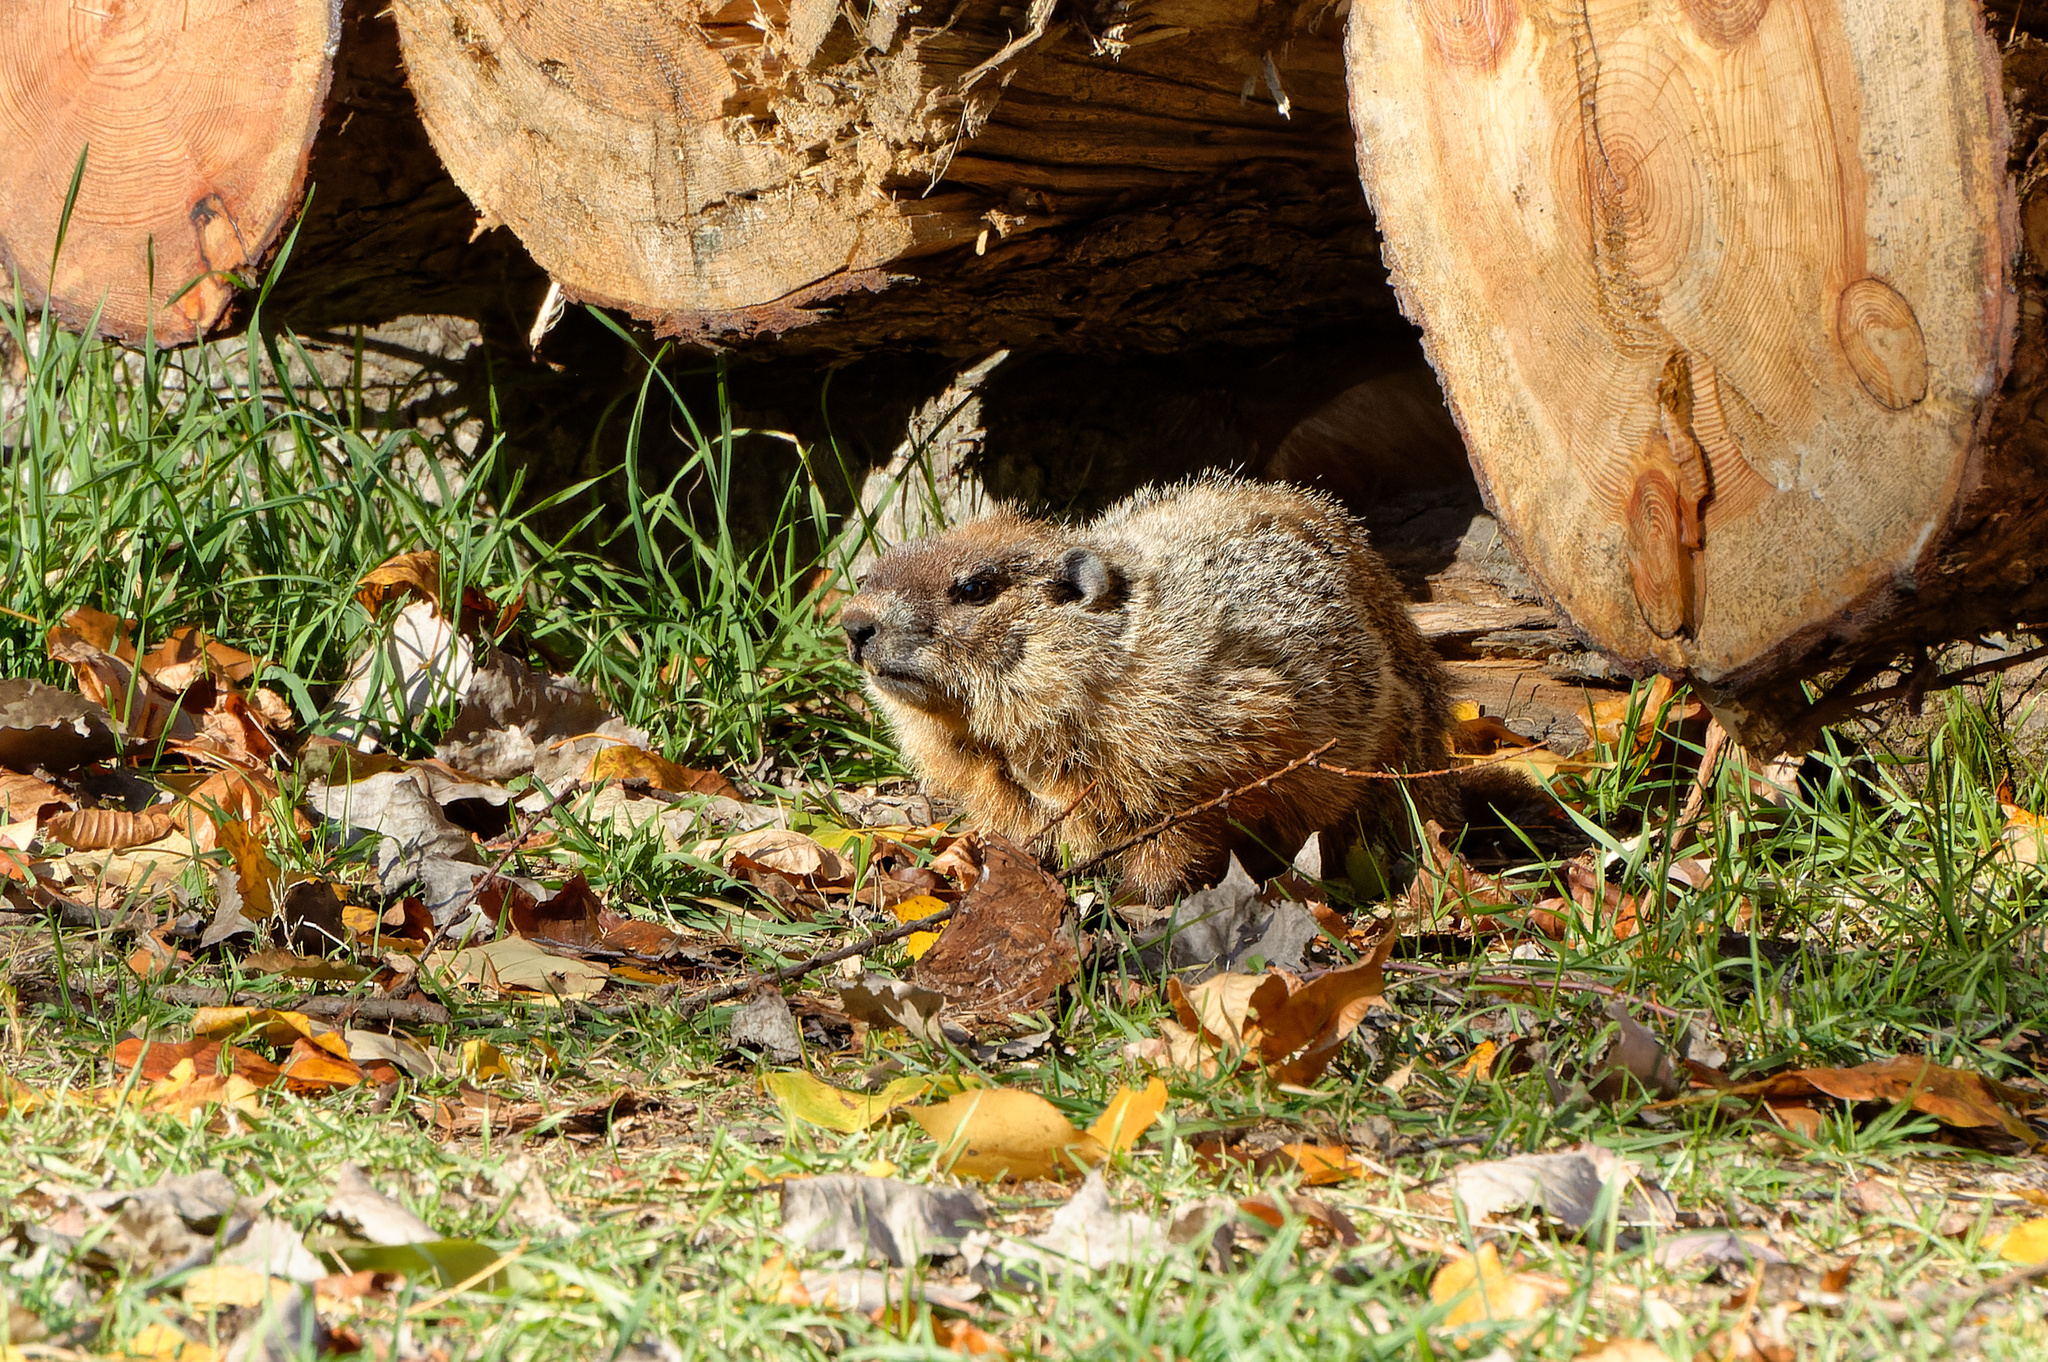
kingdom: Animalia
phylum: Chordata
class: Mammalia
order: Rodentia
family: Sciuridae
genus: Marmota
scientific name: Marmota monax
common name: Groundhog
